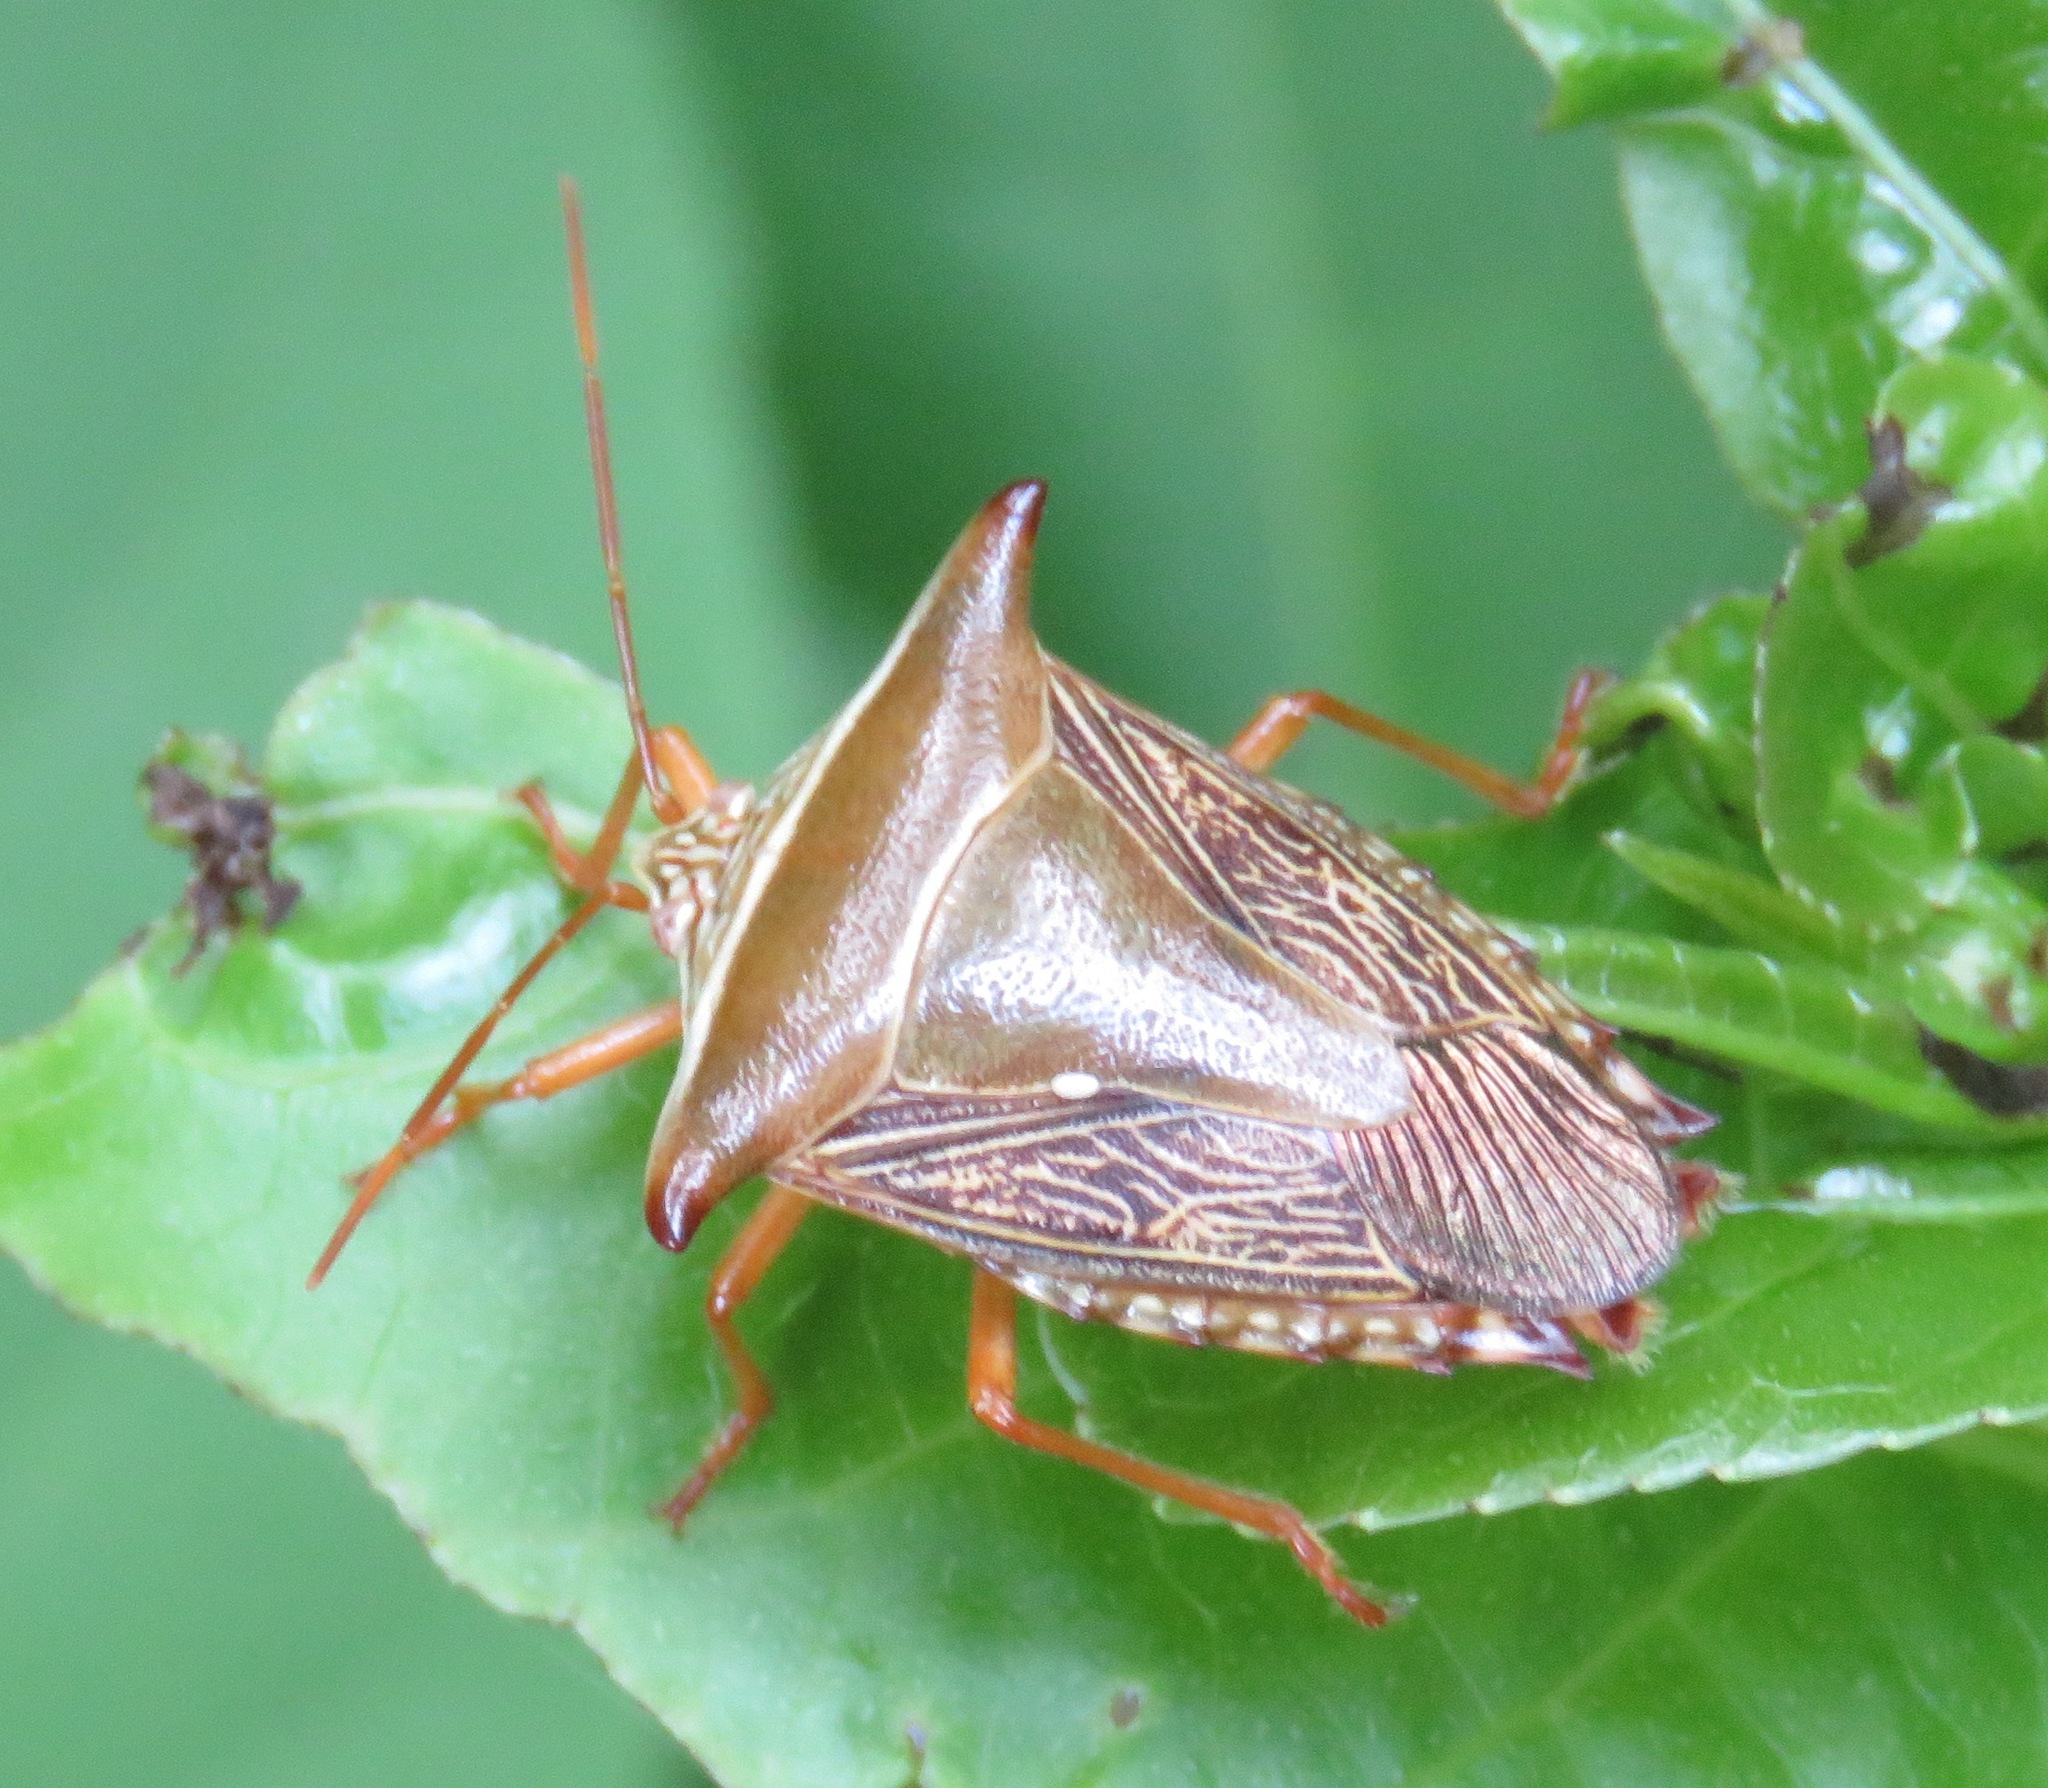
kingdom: Animalia
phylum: Arthropoda
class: Insecta
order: Hemiptera
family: Pentatomidae
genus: Edessa
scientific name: Edessa reticulata
